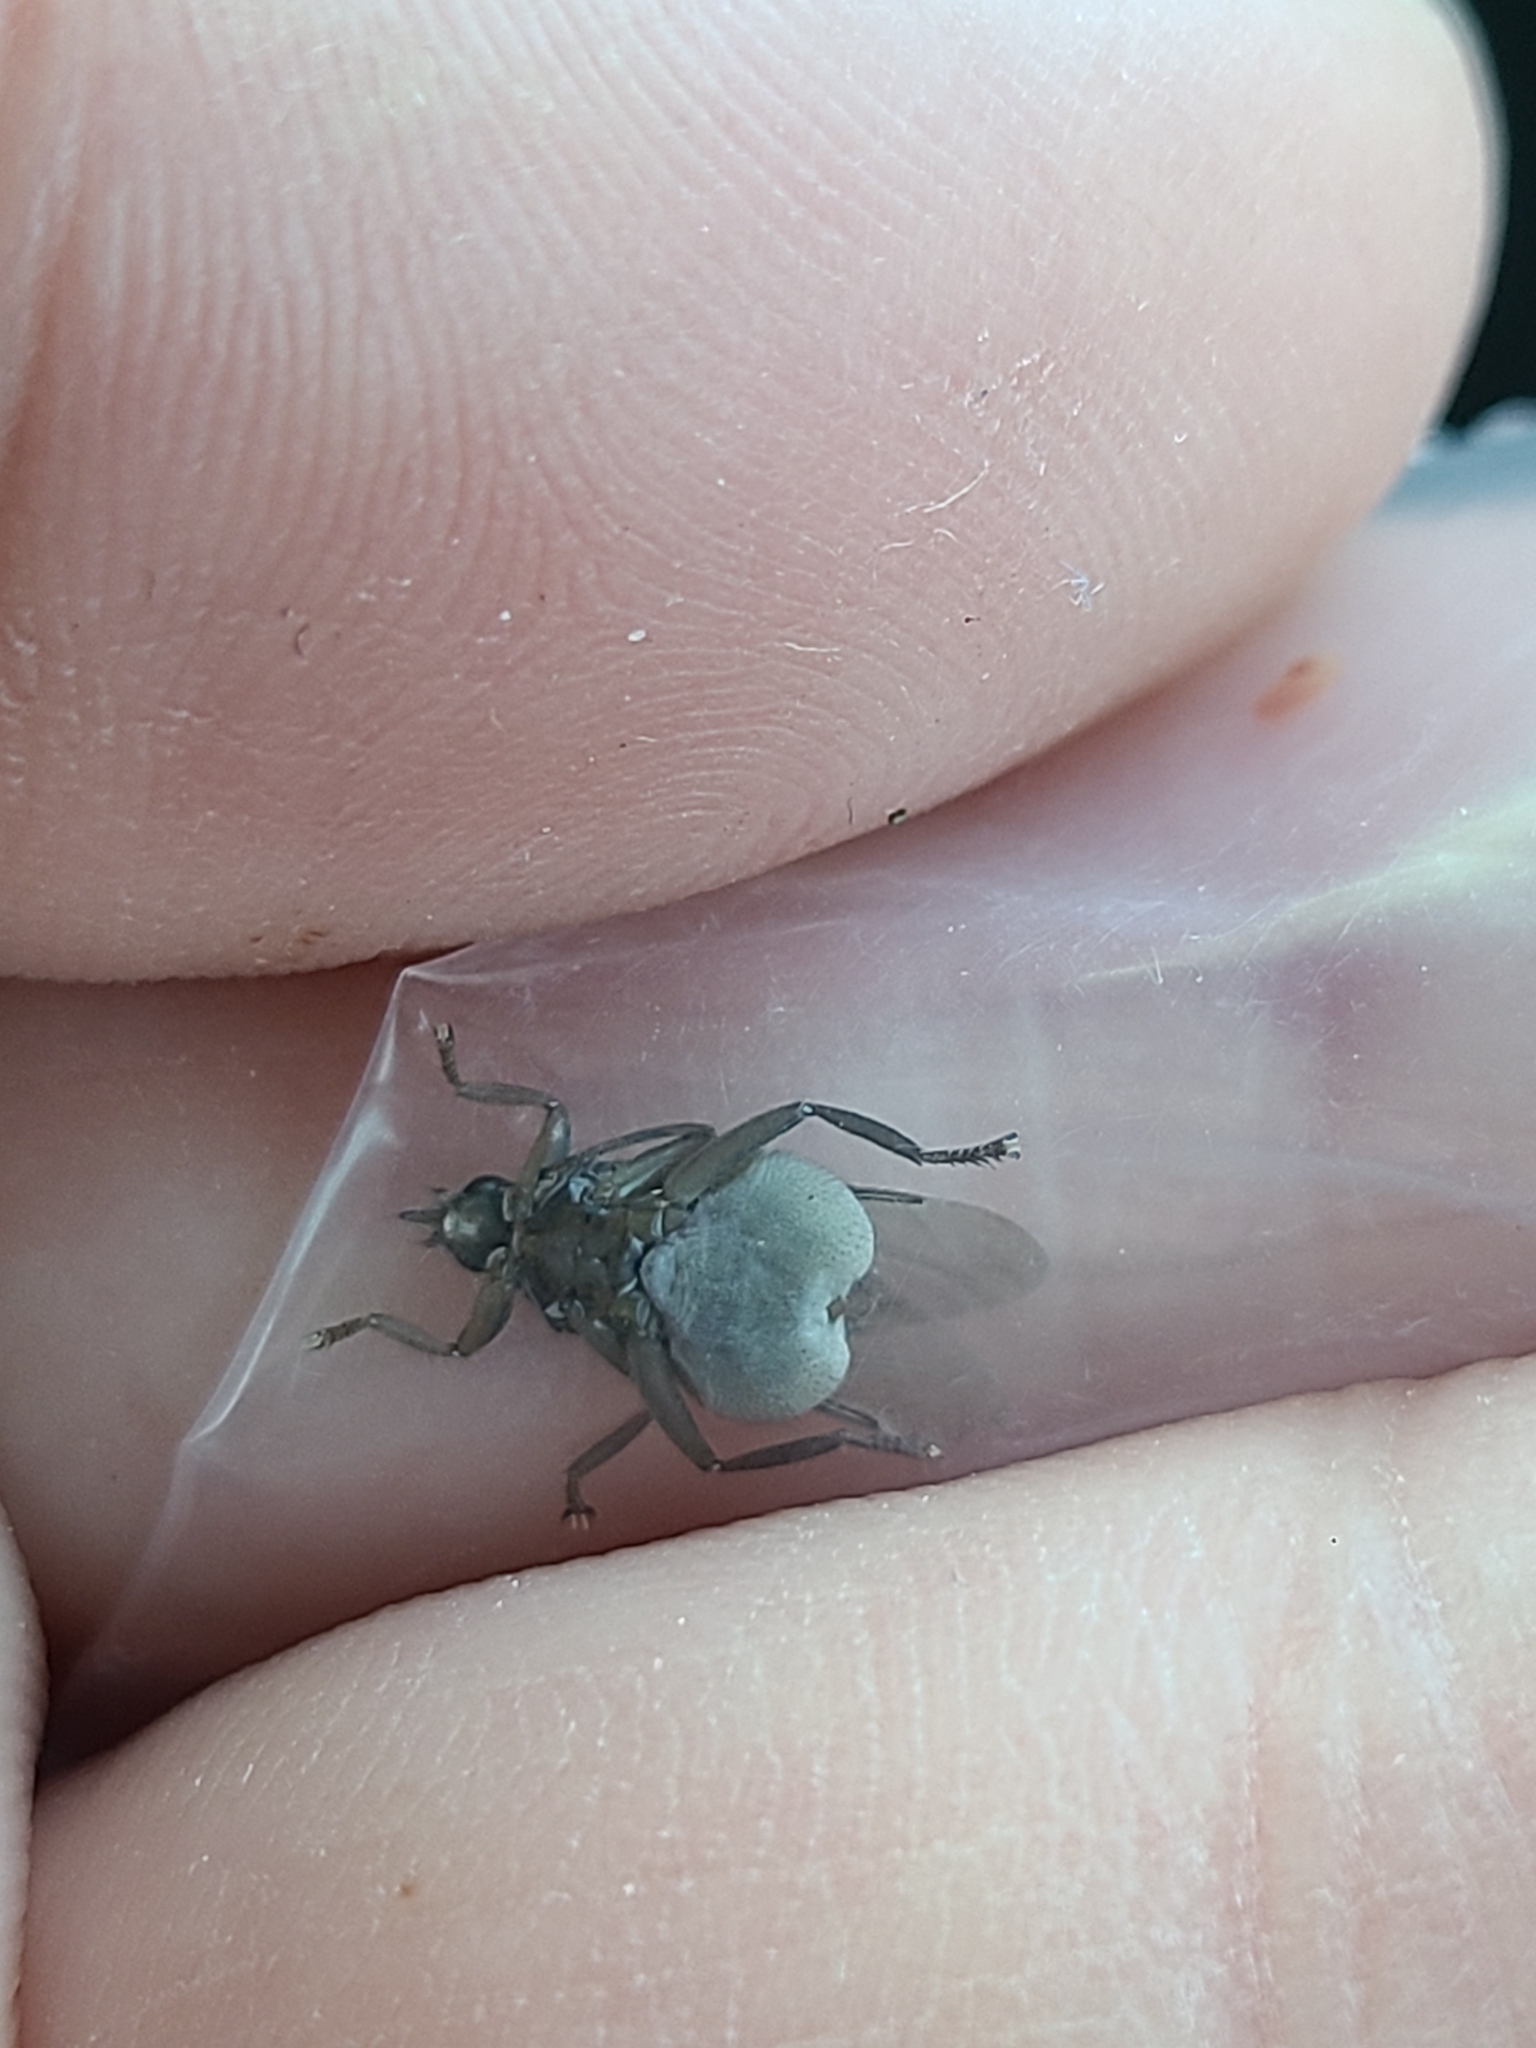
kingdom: Animalia
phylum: Arthropoda
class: Insecta
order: Diptera
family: Hippoboscidae
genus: Pseudolynchia
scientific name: Pseudolynchia canariensis
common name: Louse fly
